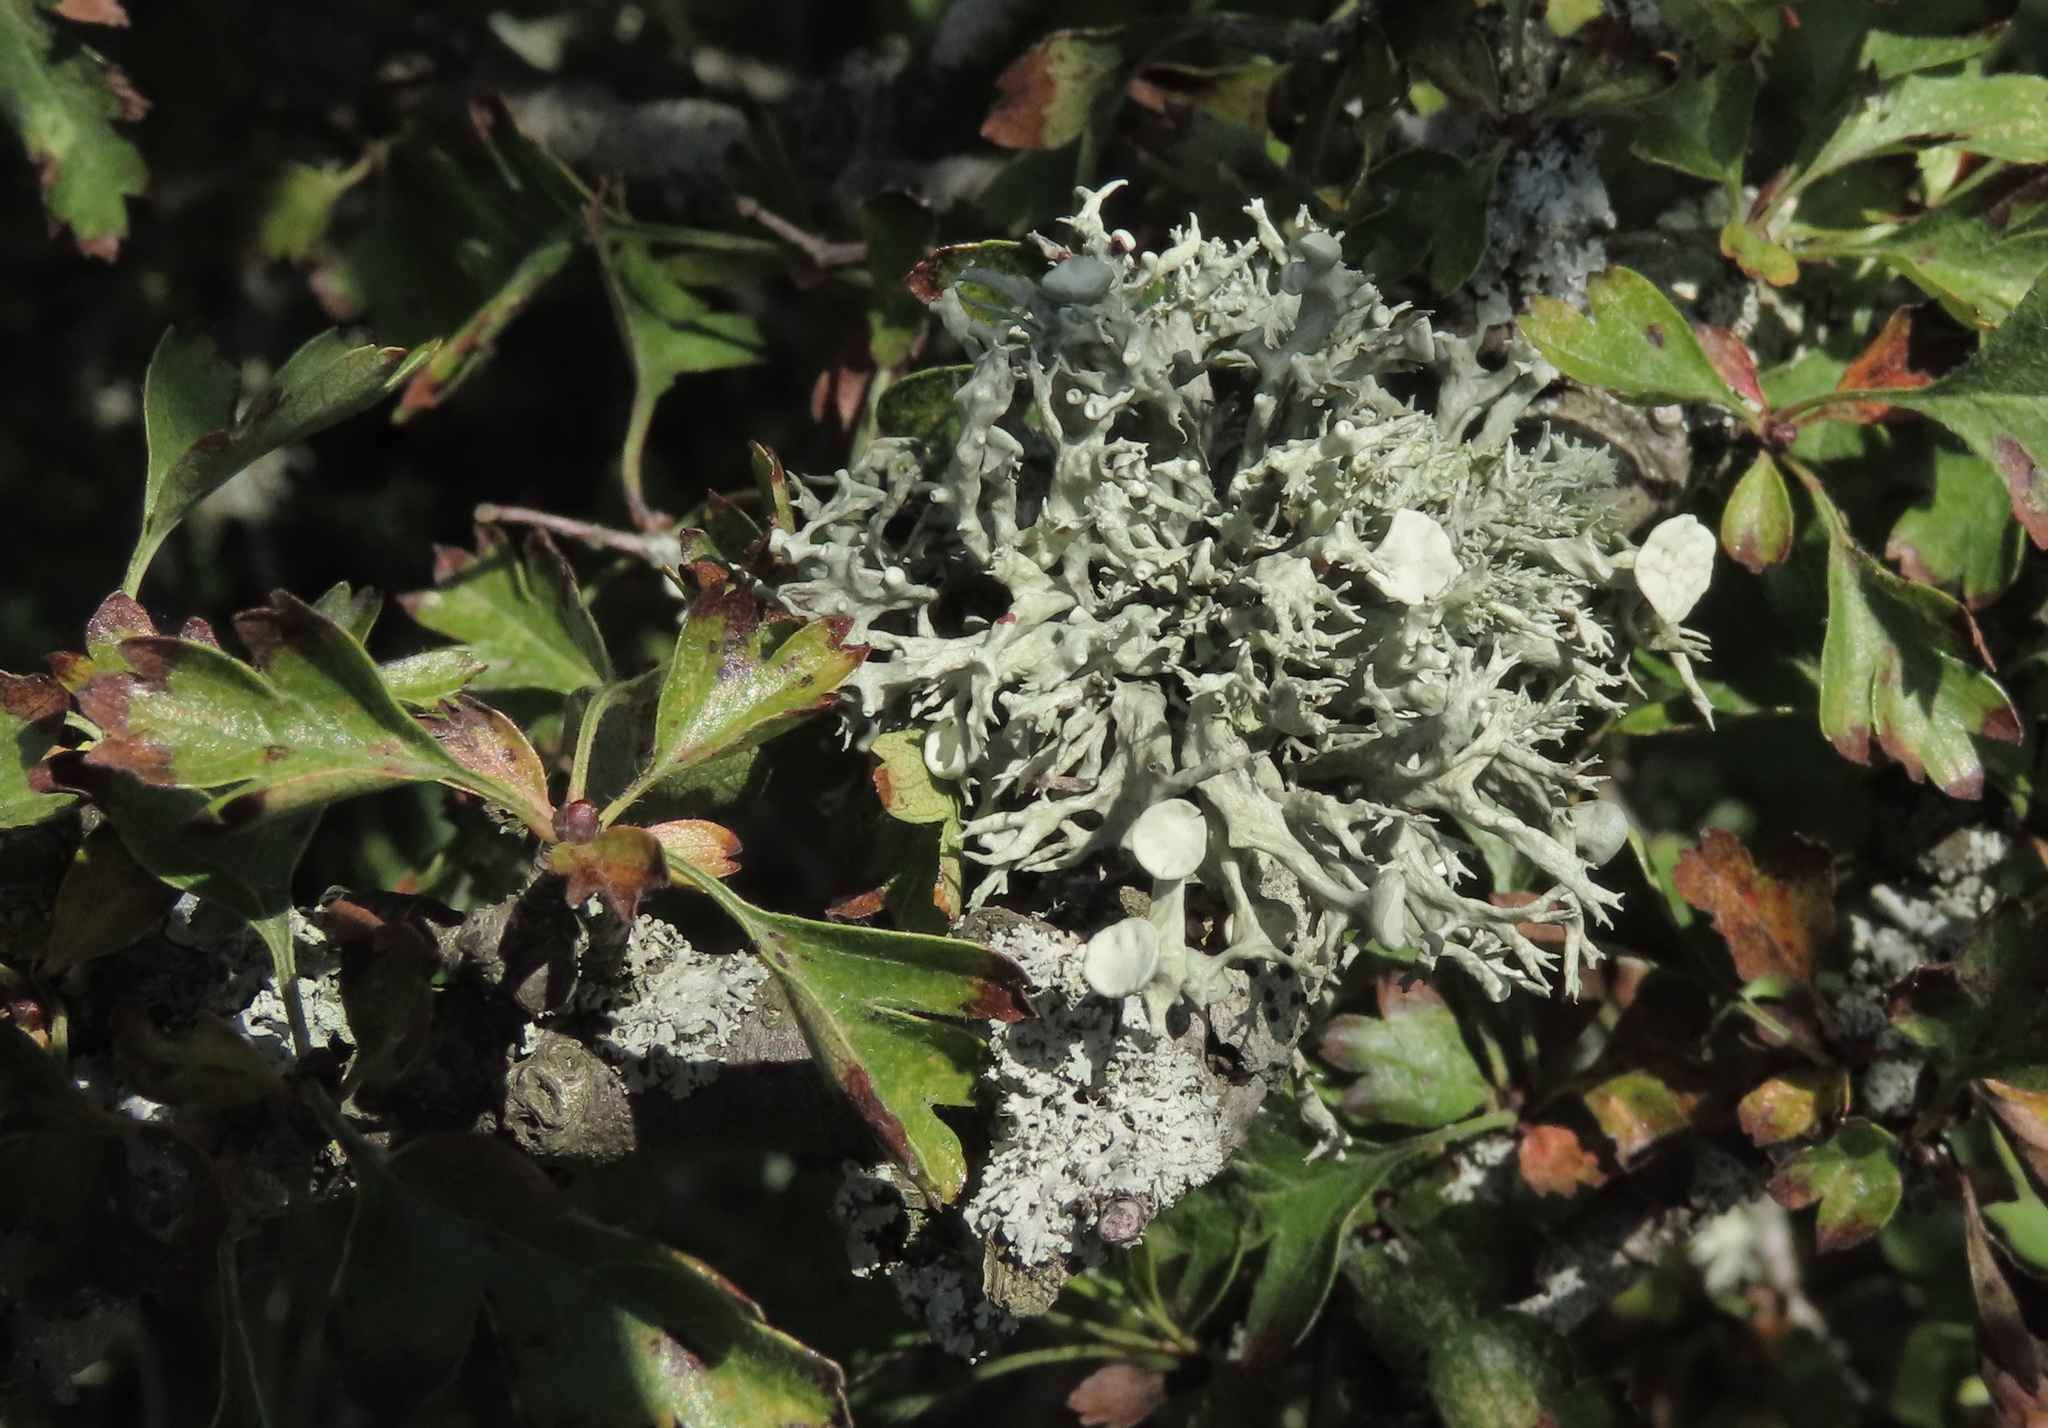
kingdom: Fungi
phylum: Ascomycota
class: Lecanoromycetes
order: Lecanorales
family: Ramalinaceae
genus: Ramalina
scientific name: Ramalina fastigiata
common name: Dotted ribbon lichen
